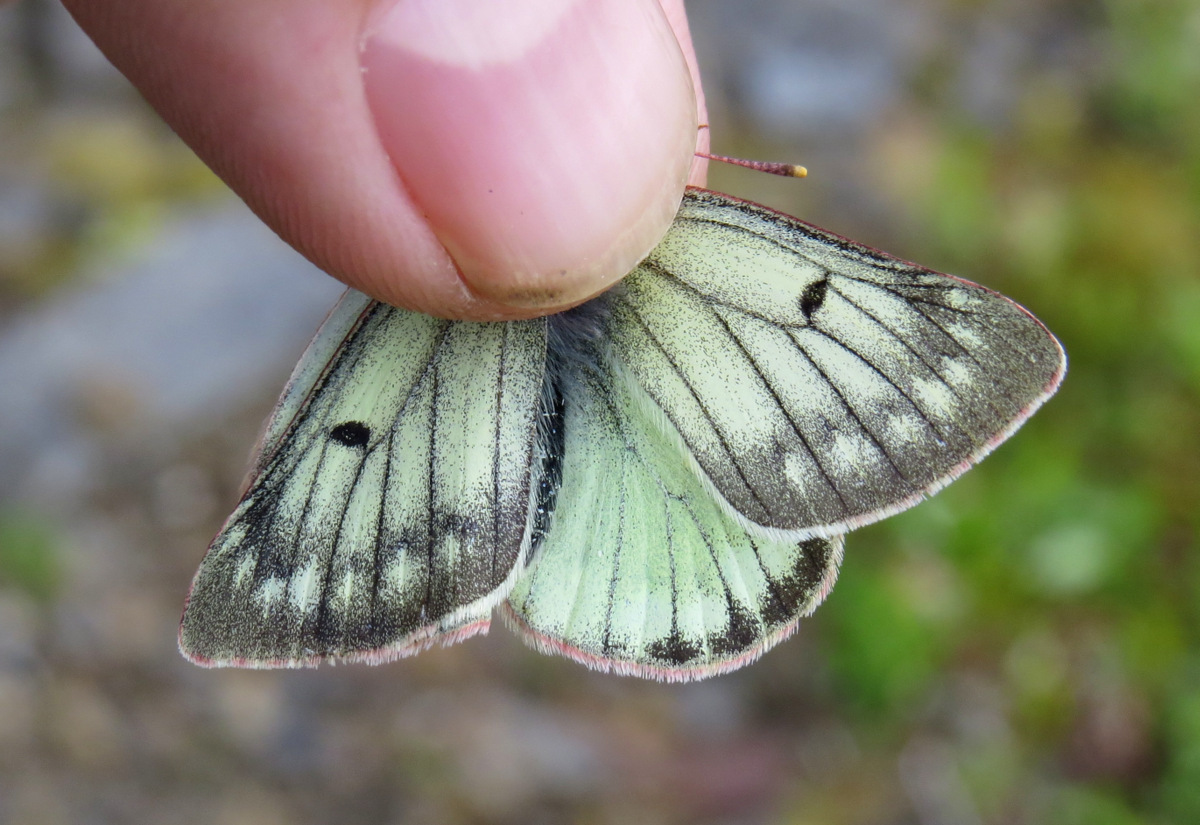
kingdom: Animalia
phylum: Arthropoda
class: Insecta
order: Lepidoptera
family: Pieridae
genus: Colias
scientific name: Colias nastes
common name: Labrador sulphur
